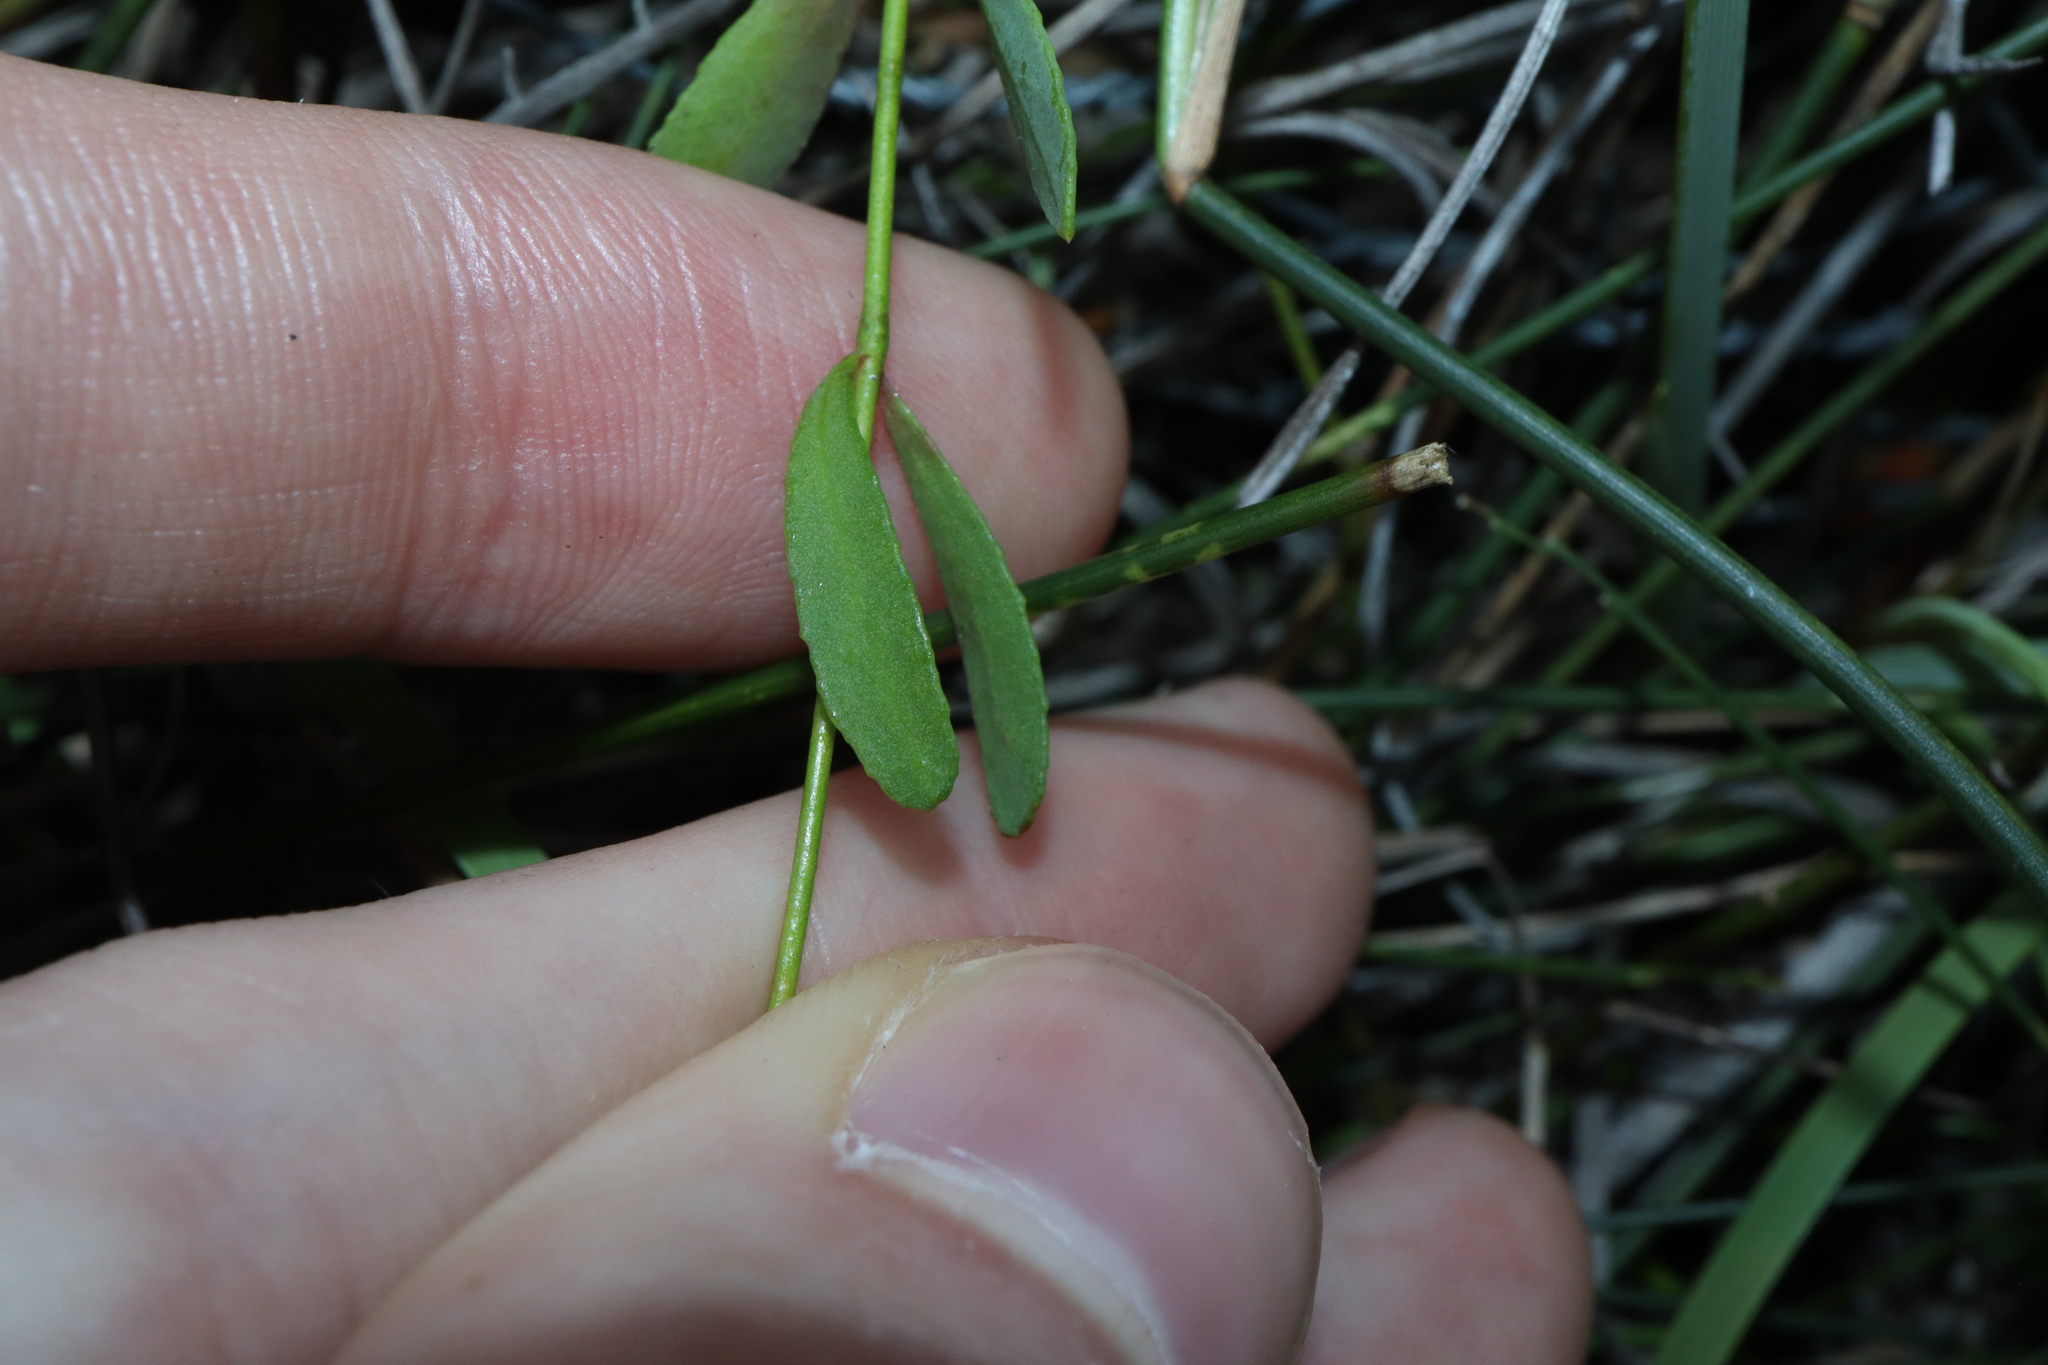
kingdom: Plantae
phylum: Tracheophyta
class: Magnoliopsida
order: Sapindales
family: Rutaceae
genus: Boronia
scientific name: Boronia parviflora
